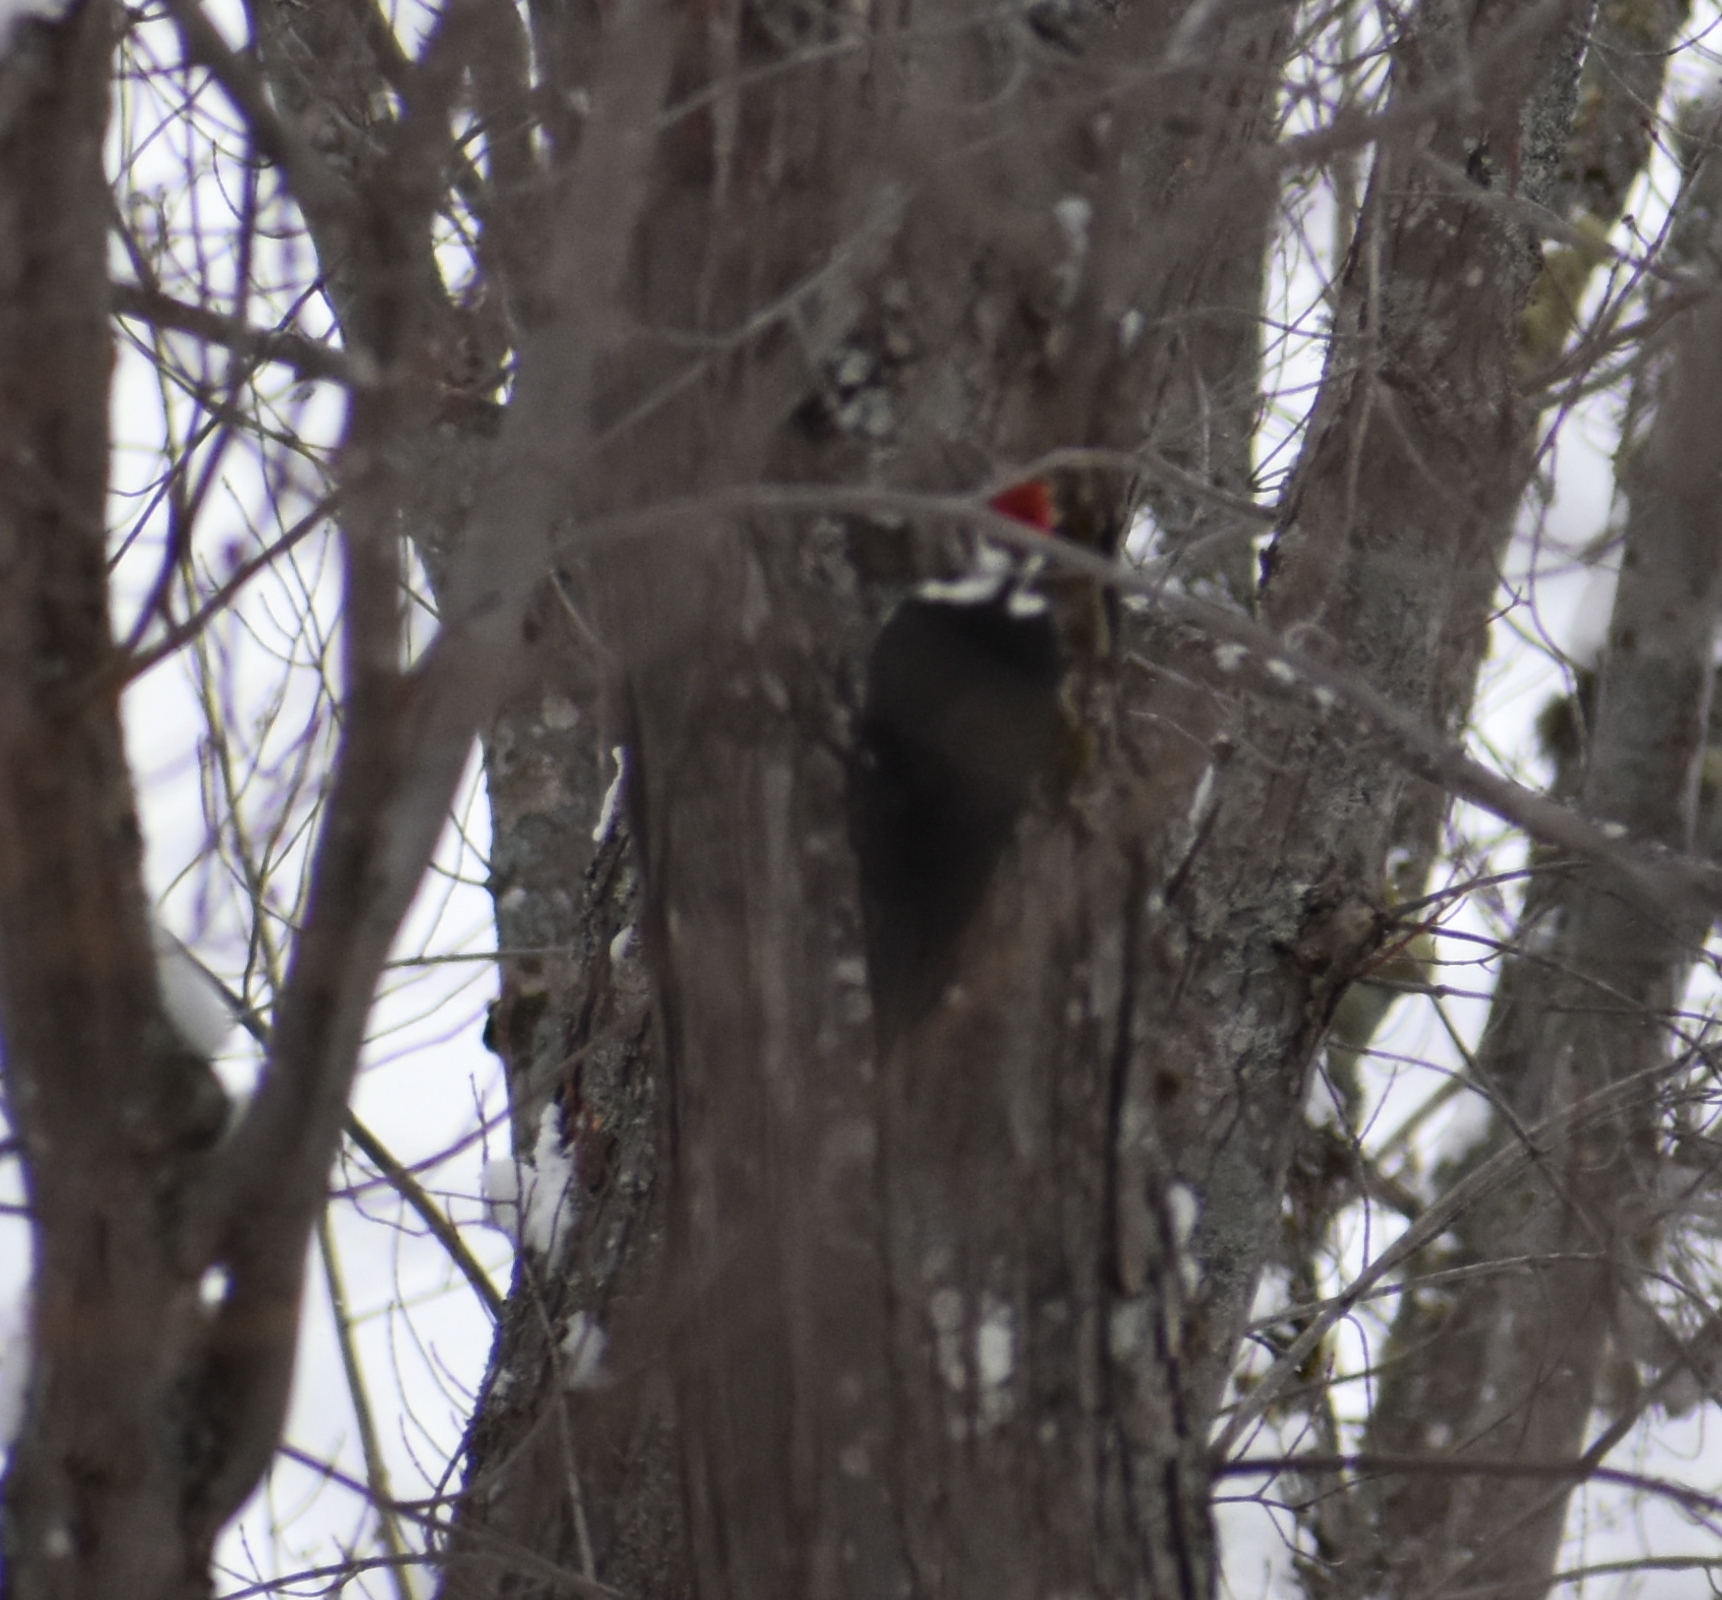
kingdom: Animalia
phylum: Chordata
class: Aves
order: Piciformes
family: Picidae
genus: Dryocopus
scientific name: Dryocopus pileatus
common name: Pileated woodpecker
